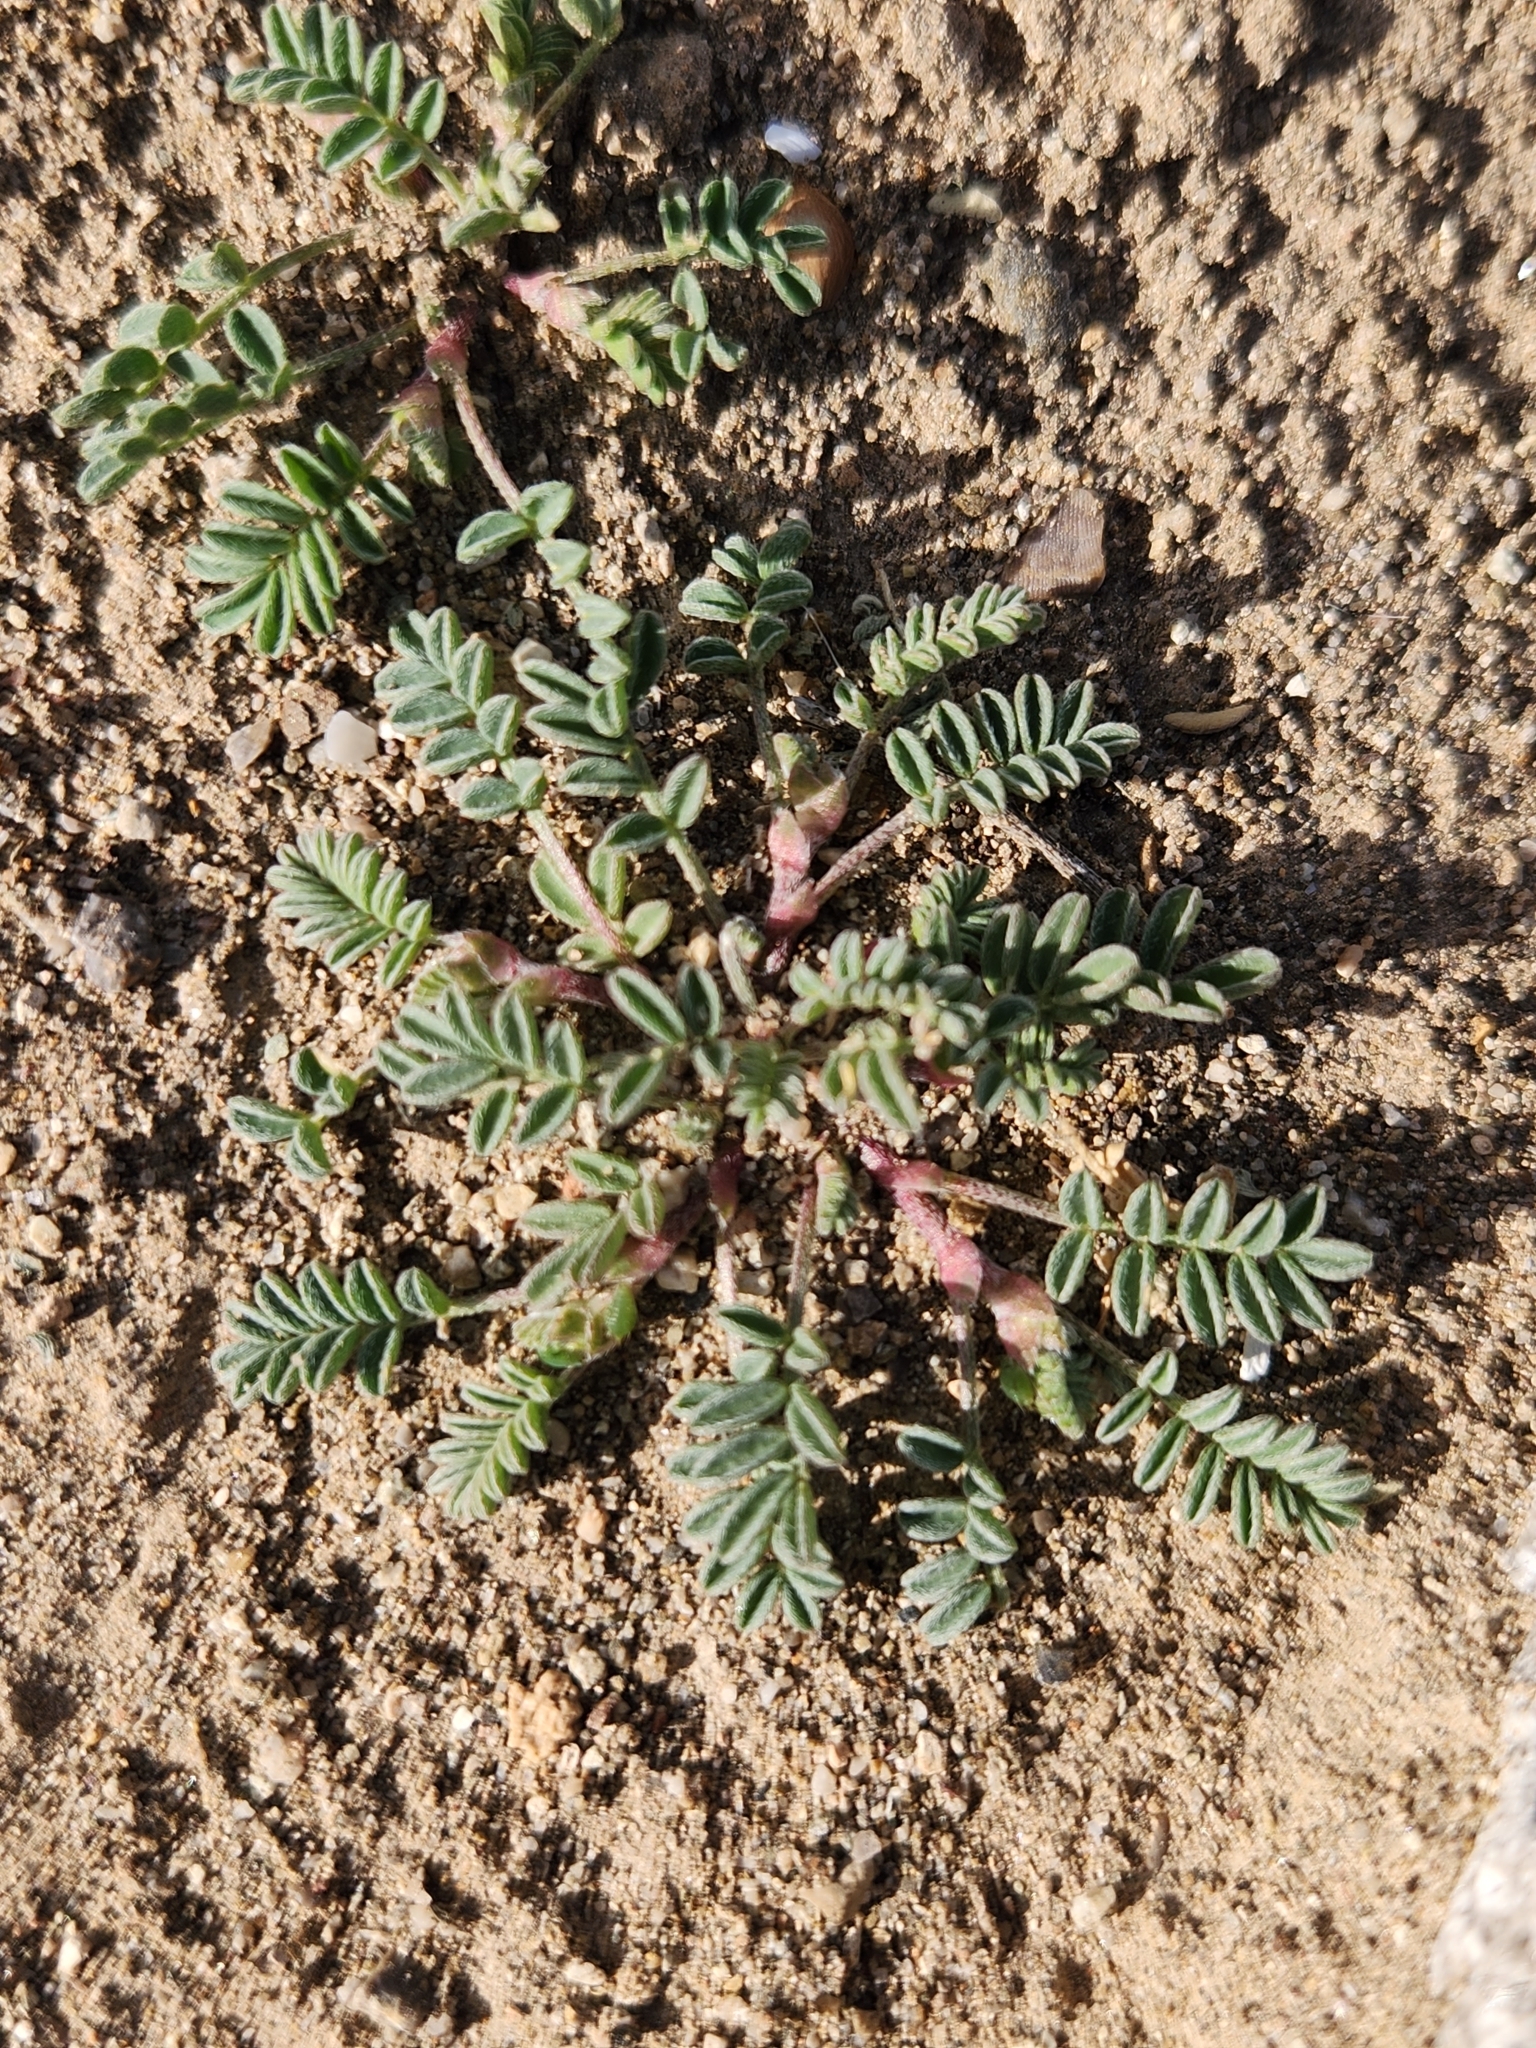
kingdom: Plantae
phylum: Tracheophyta
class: Magnoliopsida
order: Zygophyllales
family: Zygophyllaceae
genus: Tribulus
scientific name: Tribulus terrestris
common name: Puncturevine
